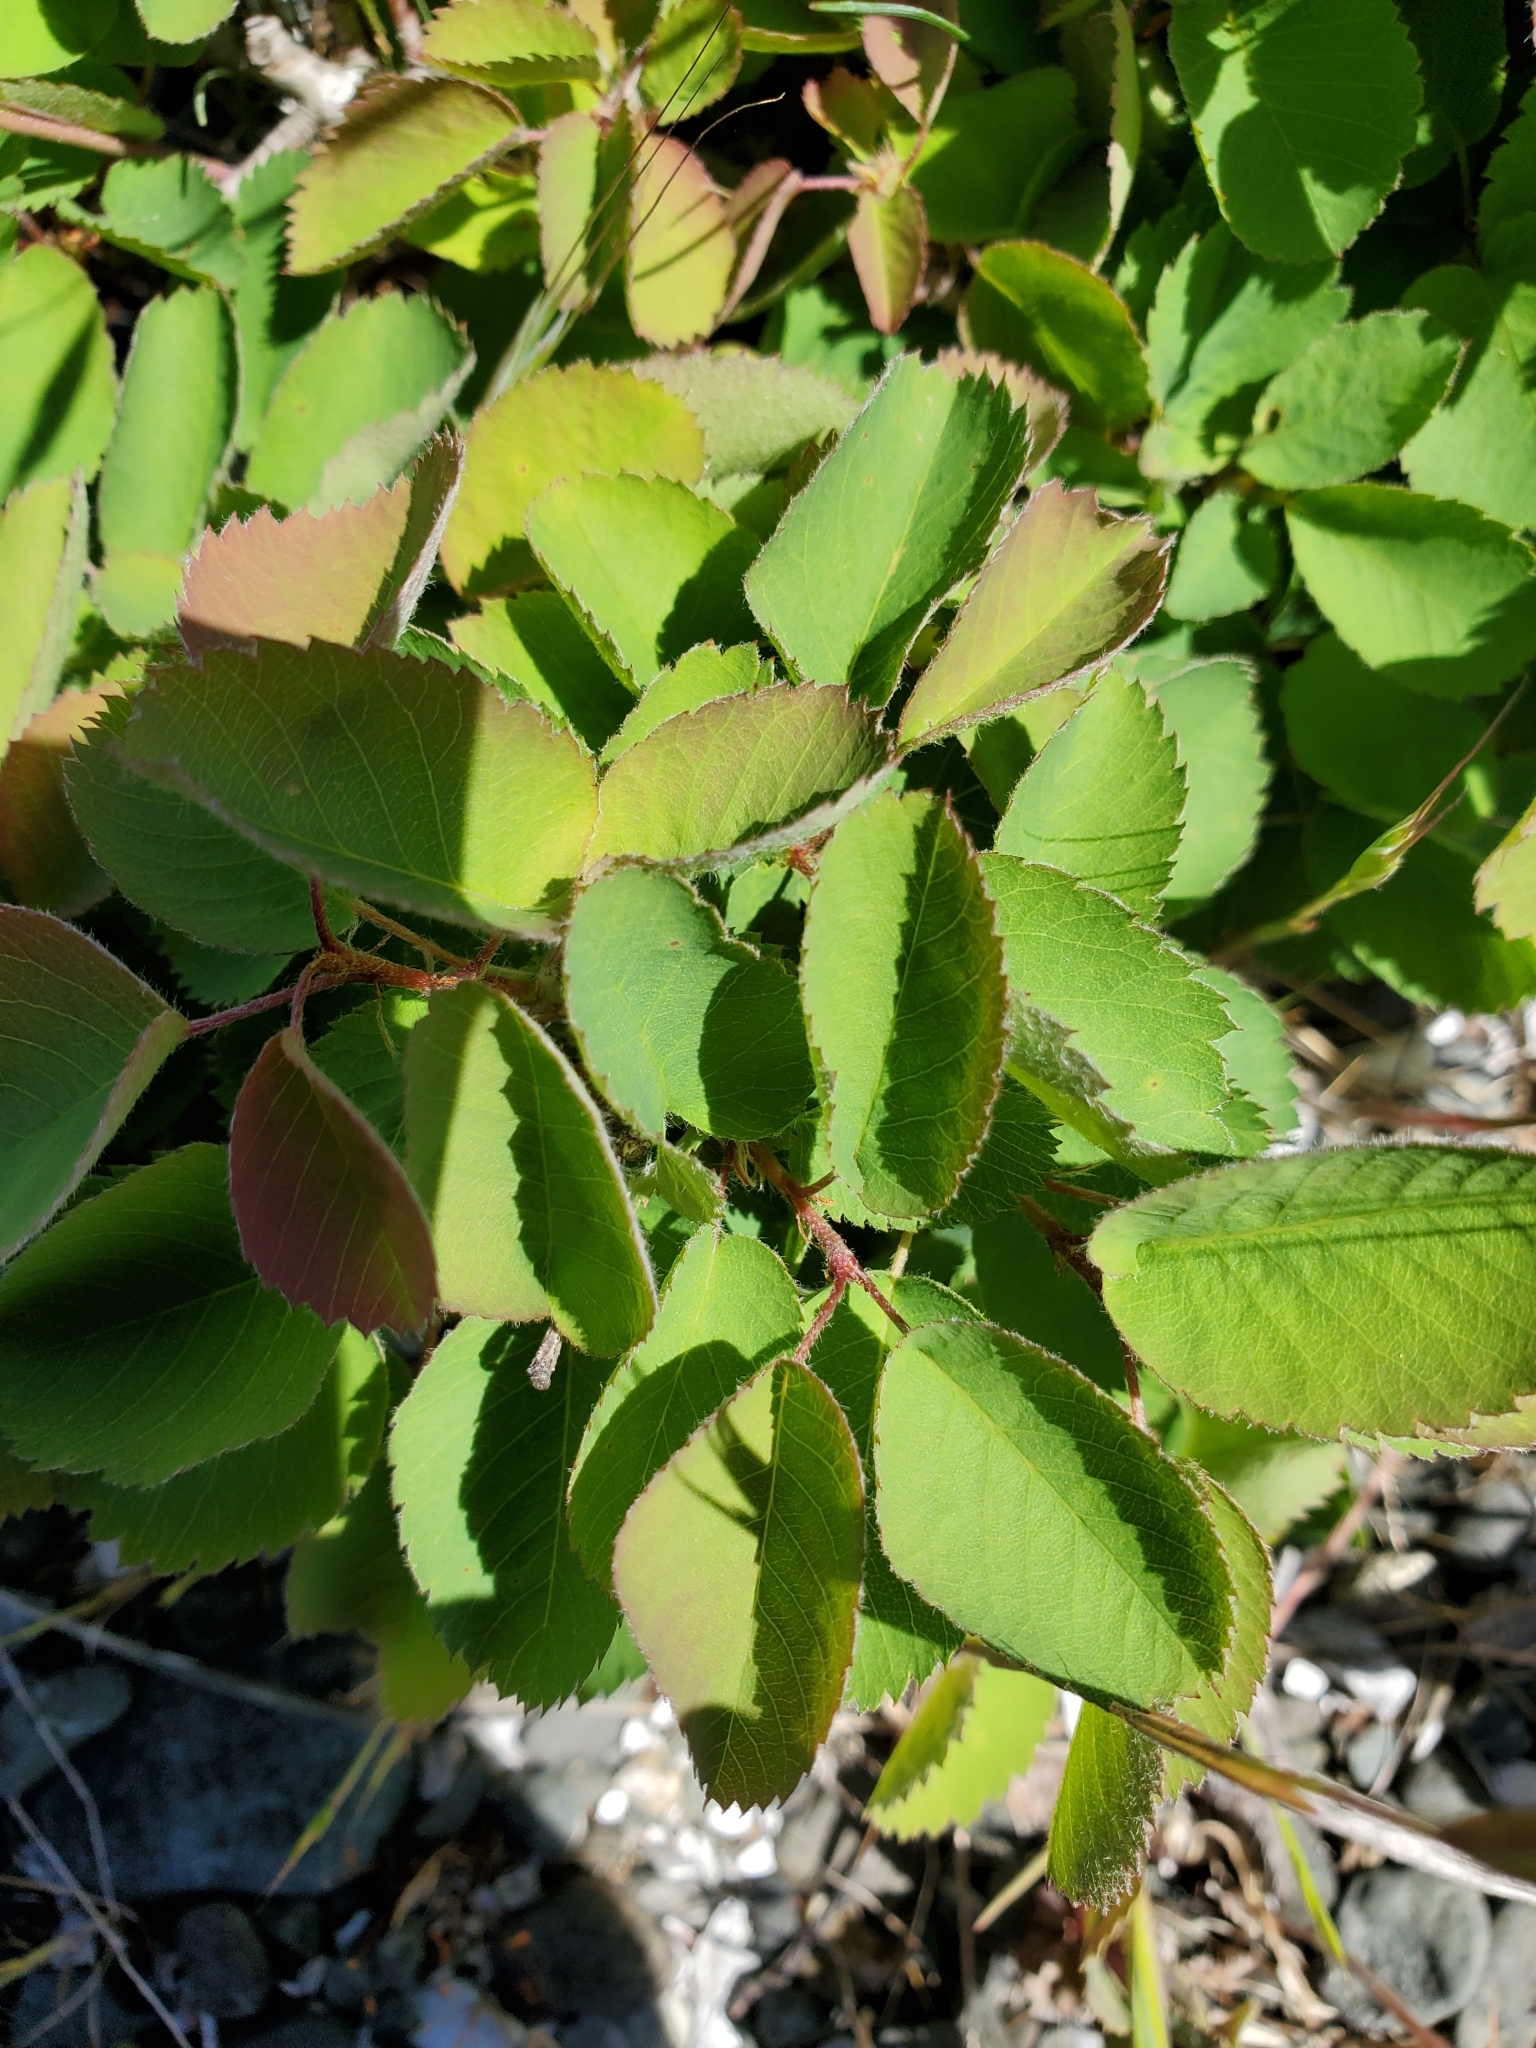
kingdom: Plantae
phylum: Tracheophyta
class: Magnoliopsida
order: Rosales
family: Rosaceae
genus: Amelanchier
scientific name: Amelanchier alnifolia
